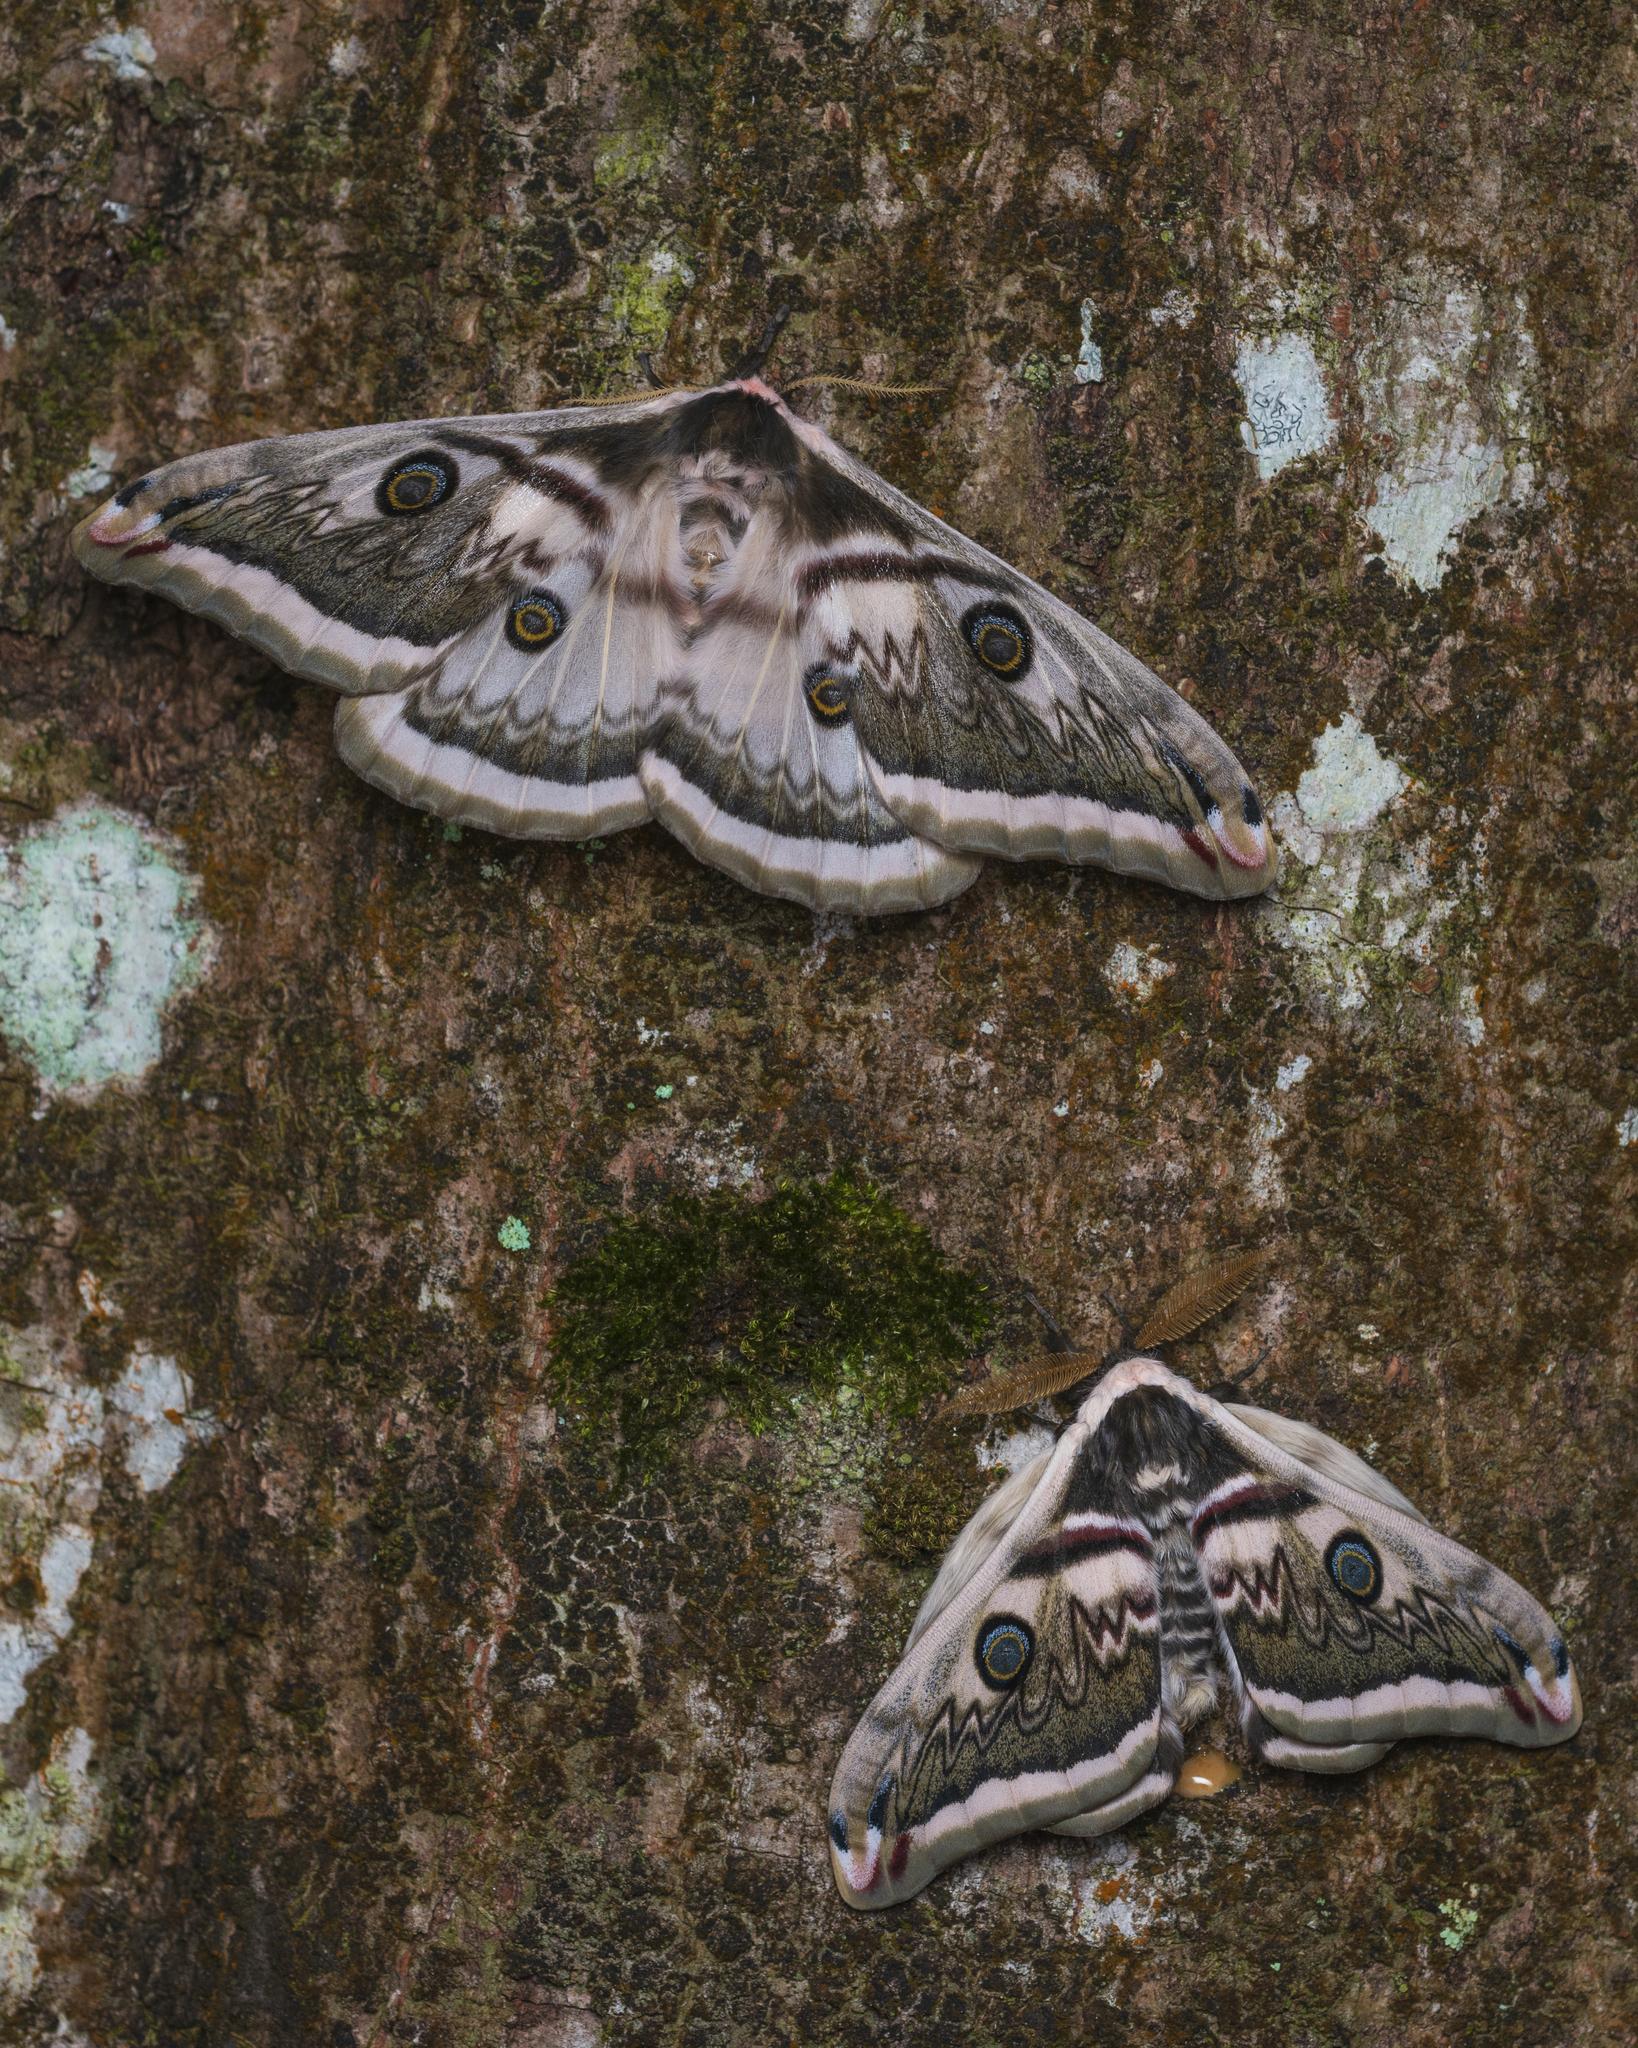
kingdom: Animalia
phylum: Arthropoda
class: Insecta
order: Lepidoptera
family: Saturniidae
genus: Saturnia
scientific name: Saturnia pyretorum
